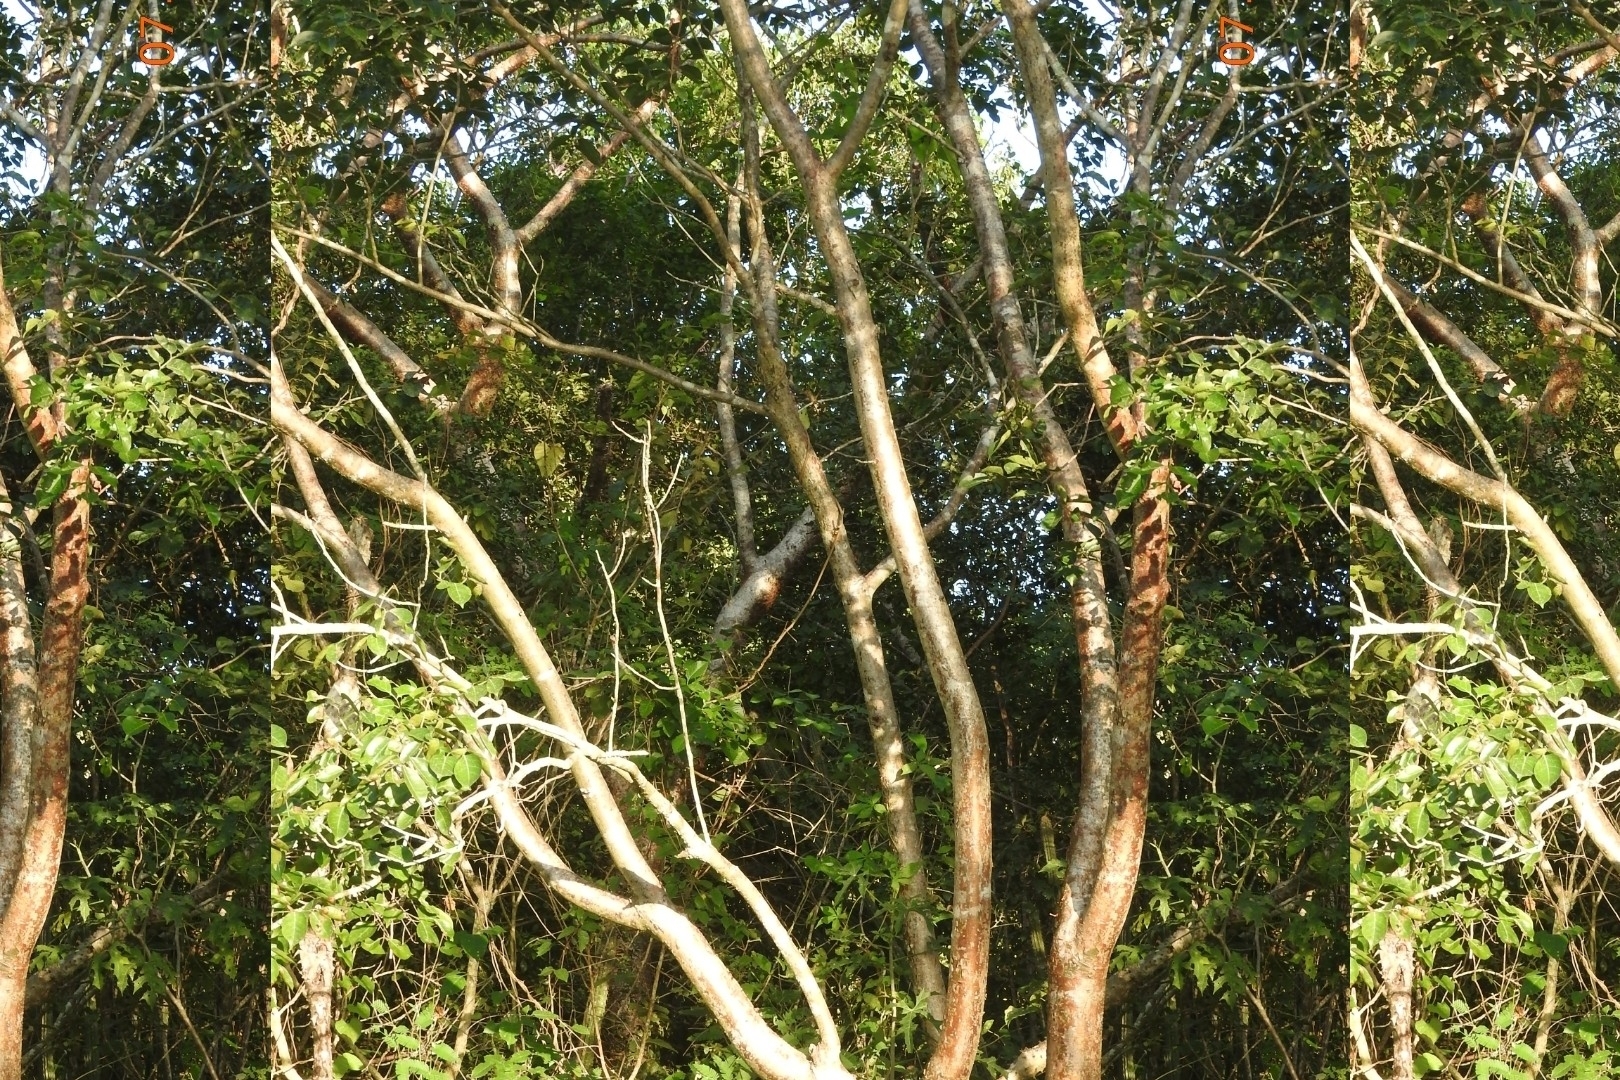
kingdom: Plantae
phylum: Tracheophyta
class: Magnoliopsida
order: Sapindales
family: Burseraceae
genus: Bursera
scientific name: Bursera simaruba
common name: Turpentine tree
